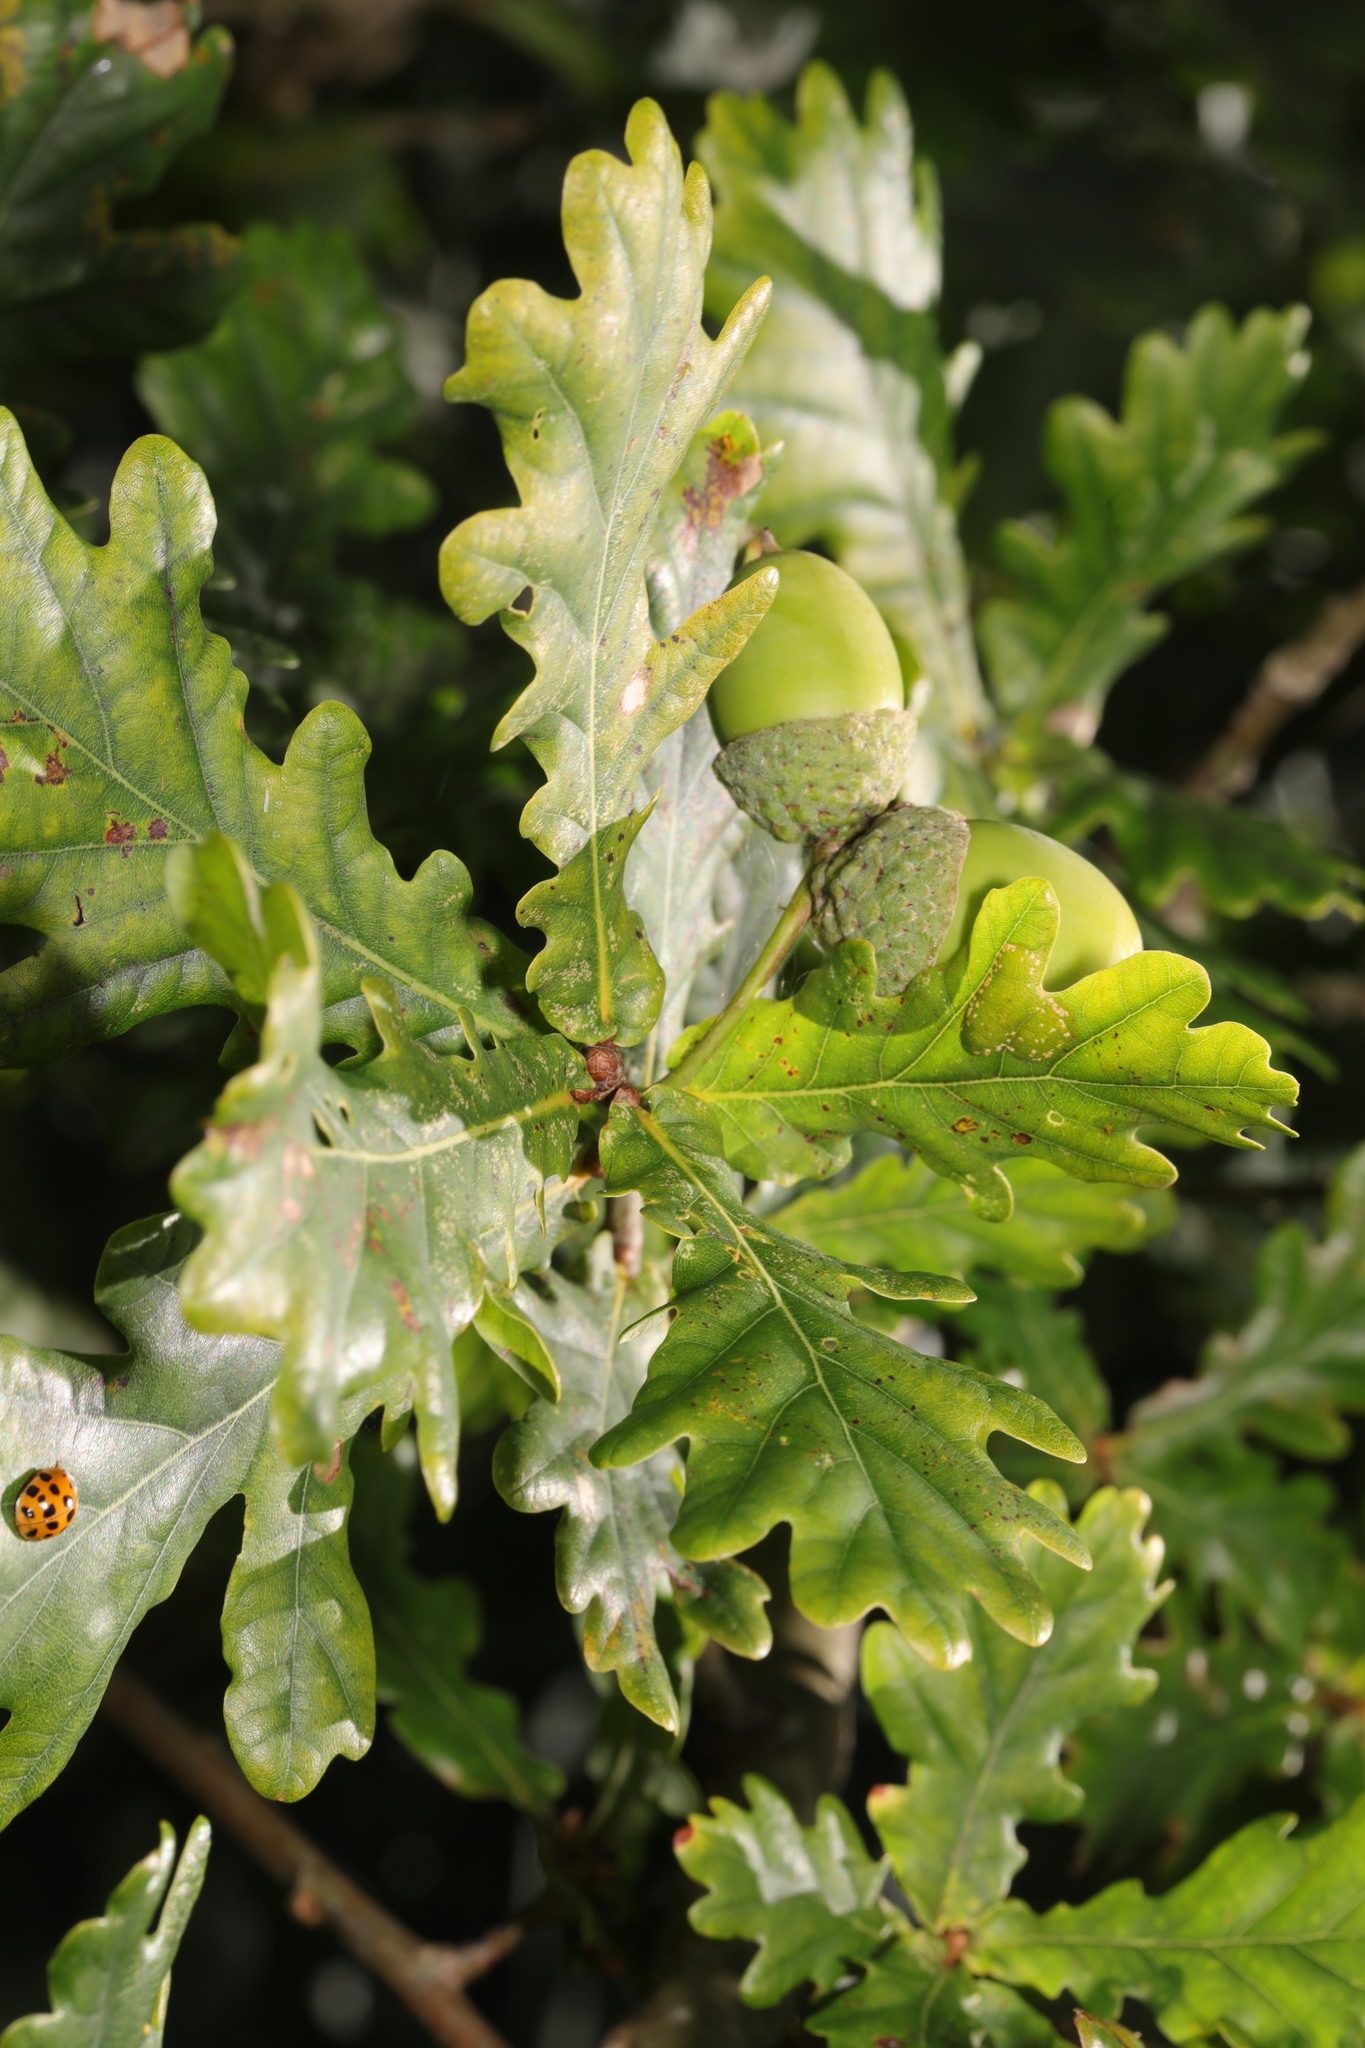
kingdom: Plantae
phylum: Tracheophyta
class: Magnoliopsida
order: Fagales
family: Fagaceae
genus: Quercus
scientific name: Quercus robur
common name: Pedunculate oak
